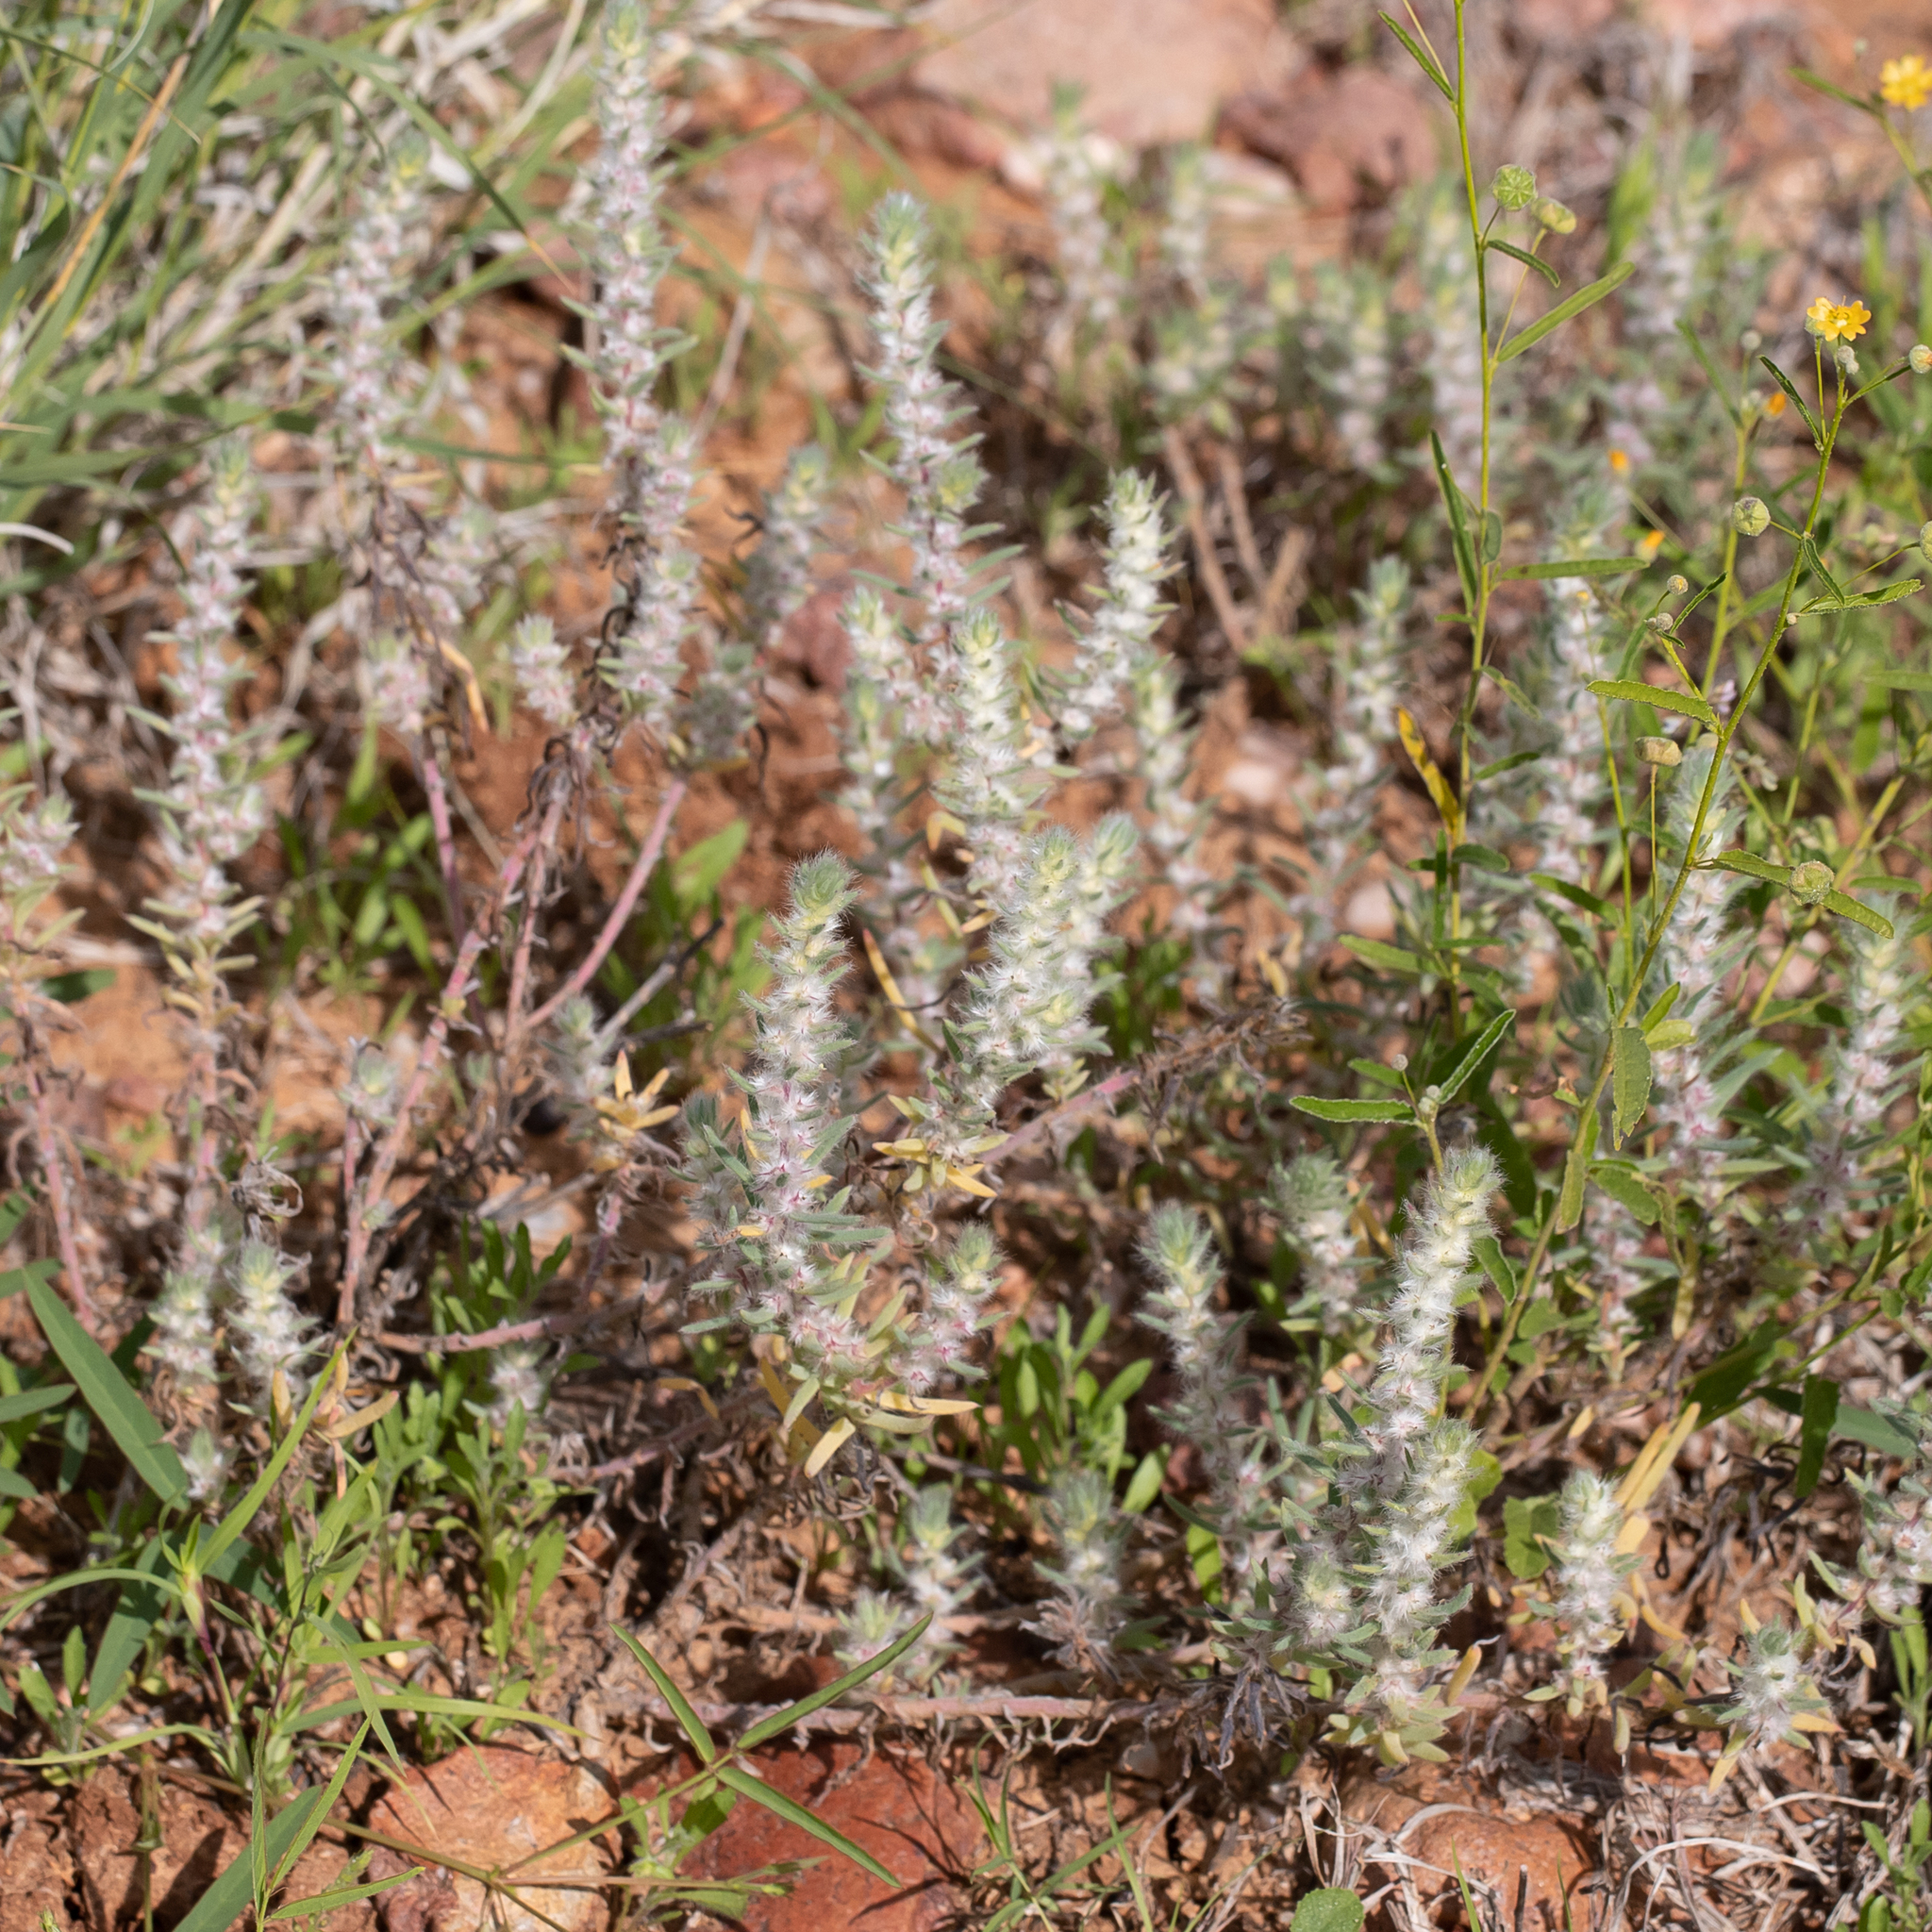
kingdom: Plantae
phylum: Tracheophyta
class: Magnoliopsida
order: Caryophyllales
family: Amaranthaceae
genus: Sclerolaena
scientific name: Sclerolaena lanicuspis
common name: Copperbur
